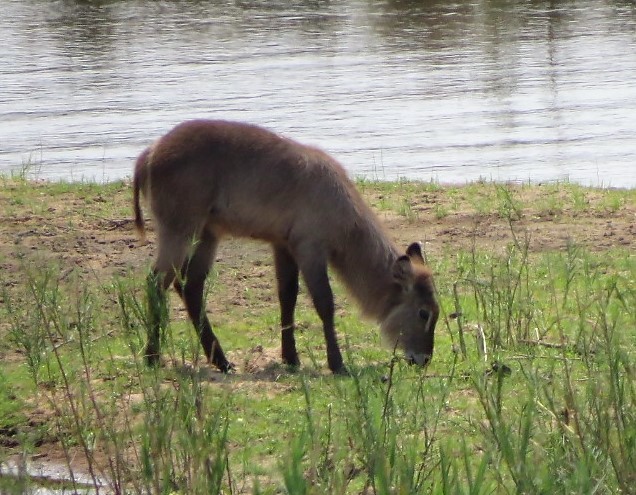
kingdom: Animalia
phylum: Chordata
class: Mammalia
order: Artiodactyla
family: Bovidae
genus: Kobus
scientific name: Kobus ellipsiprymnus
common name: Waterbuck
